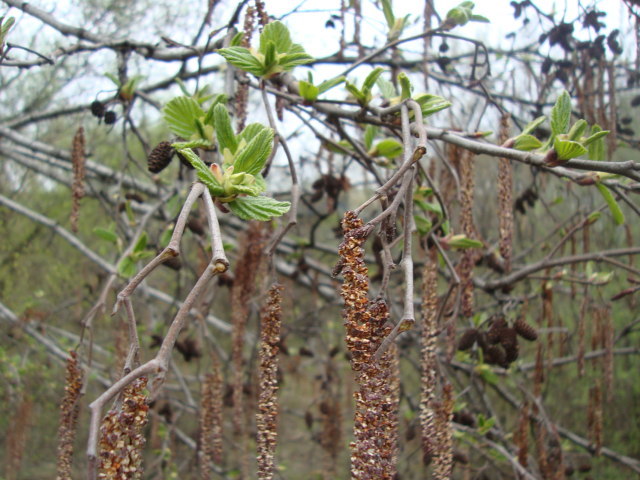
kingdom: Plantae
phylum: Tracheophyta
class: Magnoliopsida
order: Fagales
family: Betulaceae
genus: Alnus
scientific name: Alnus incana
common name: Grey alder
